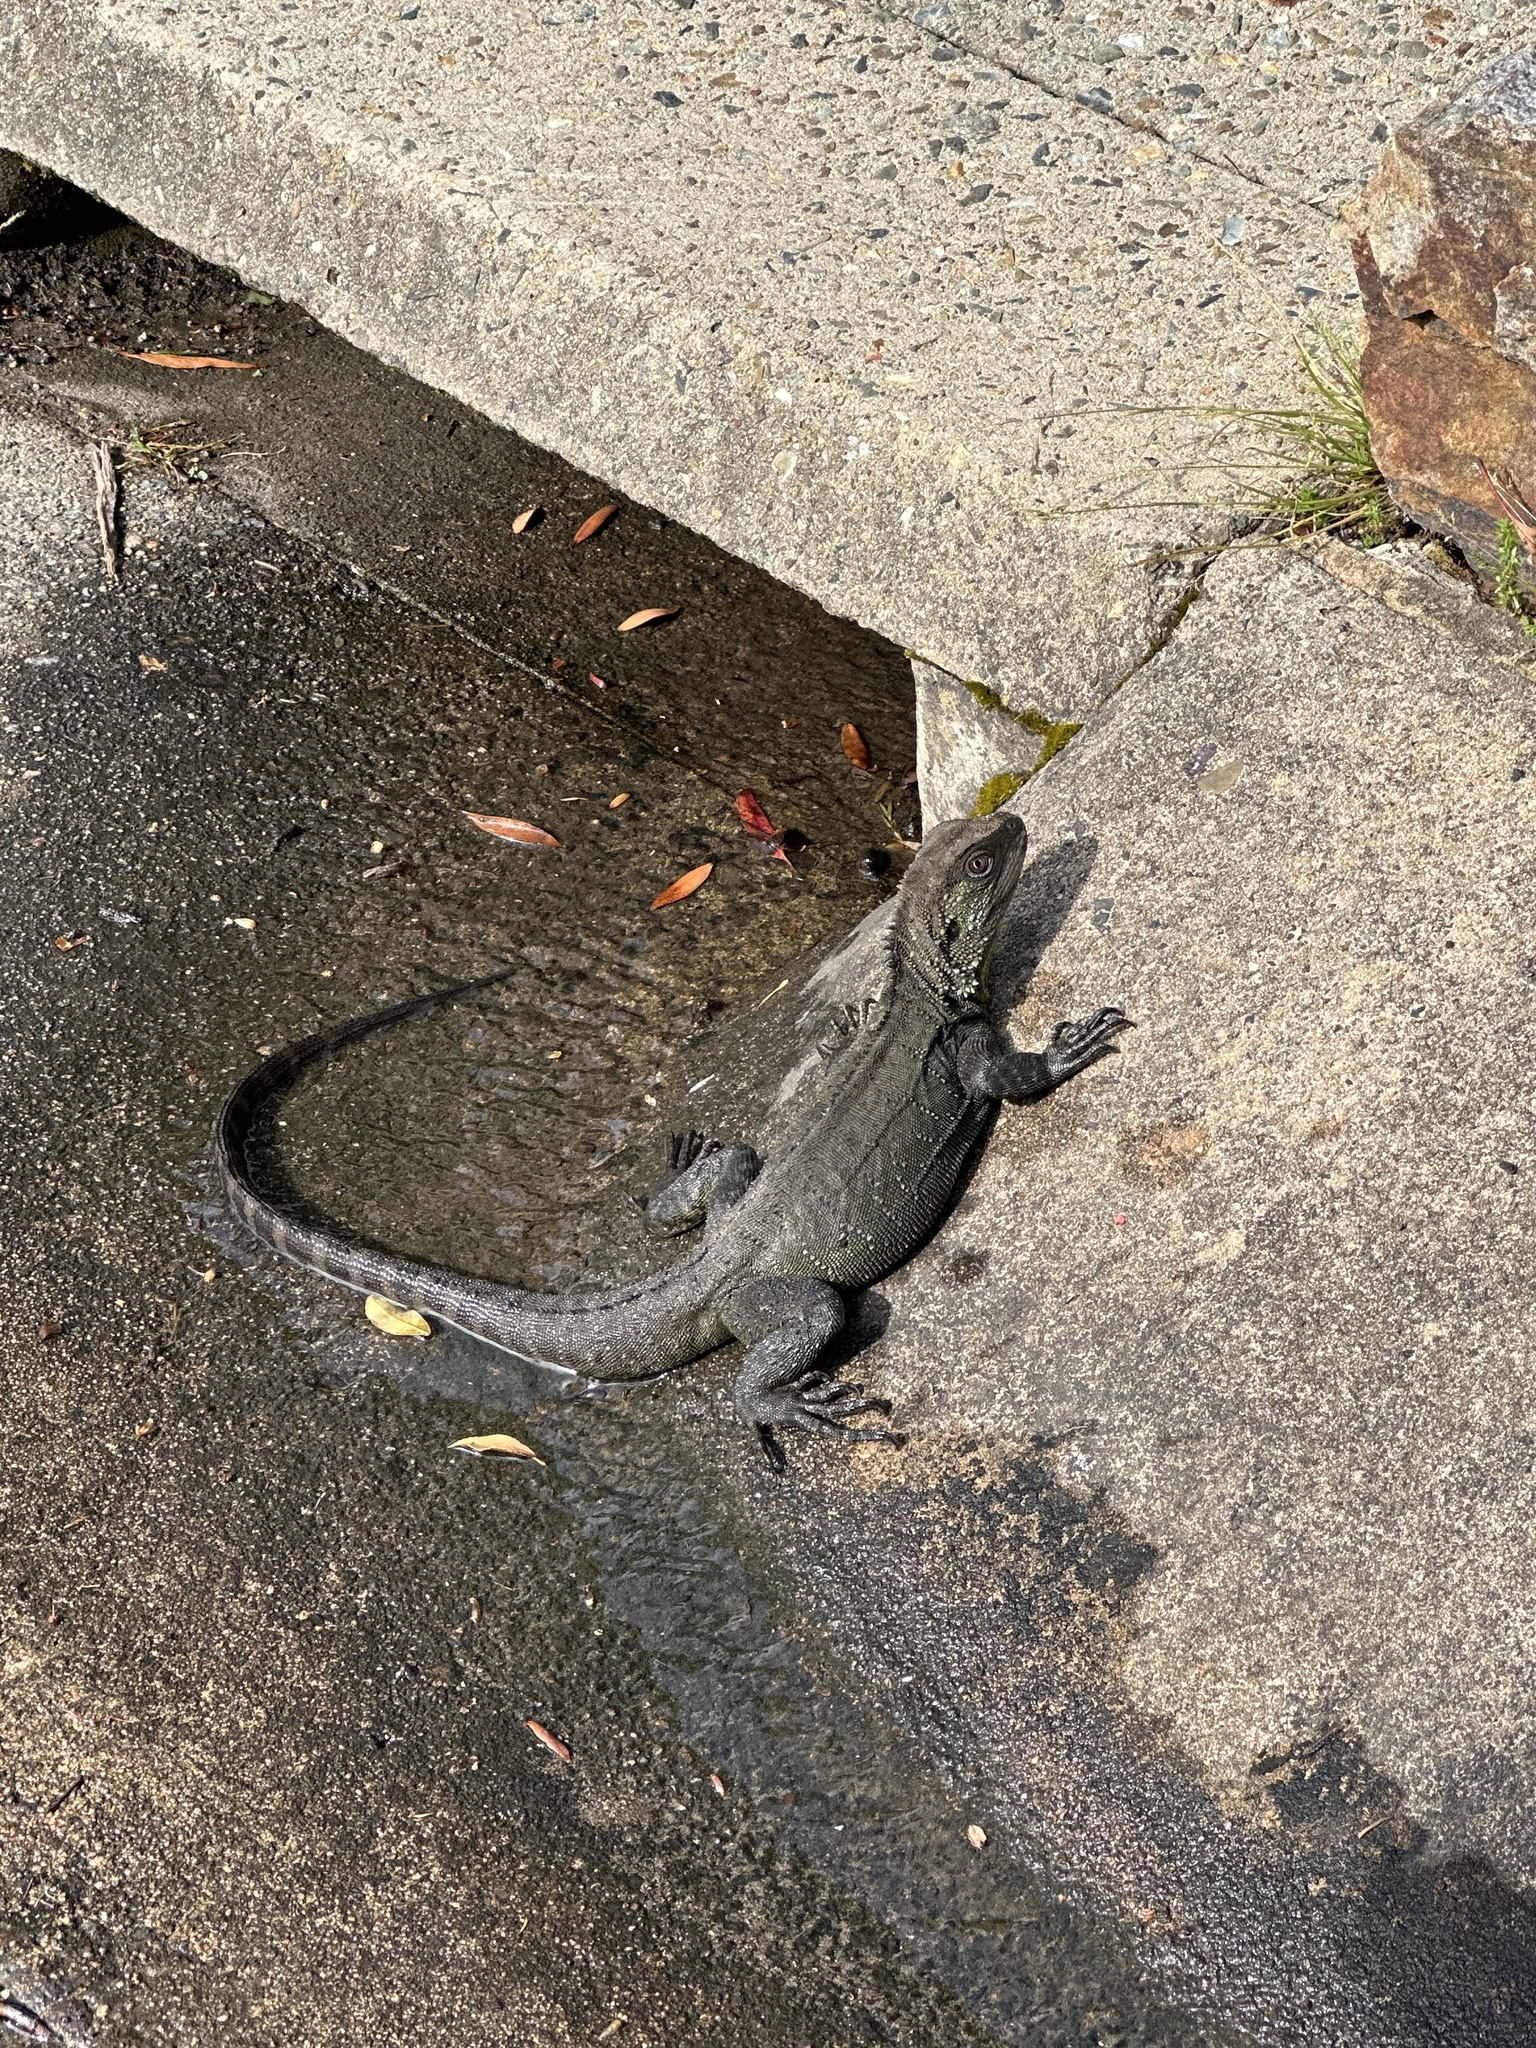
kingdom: Animalia
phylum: Chordata
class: Squamata
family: Agamidae
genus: Intellagama
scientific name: Intellagama lesueurii
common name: Eastern water dragon
